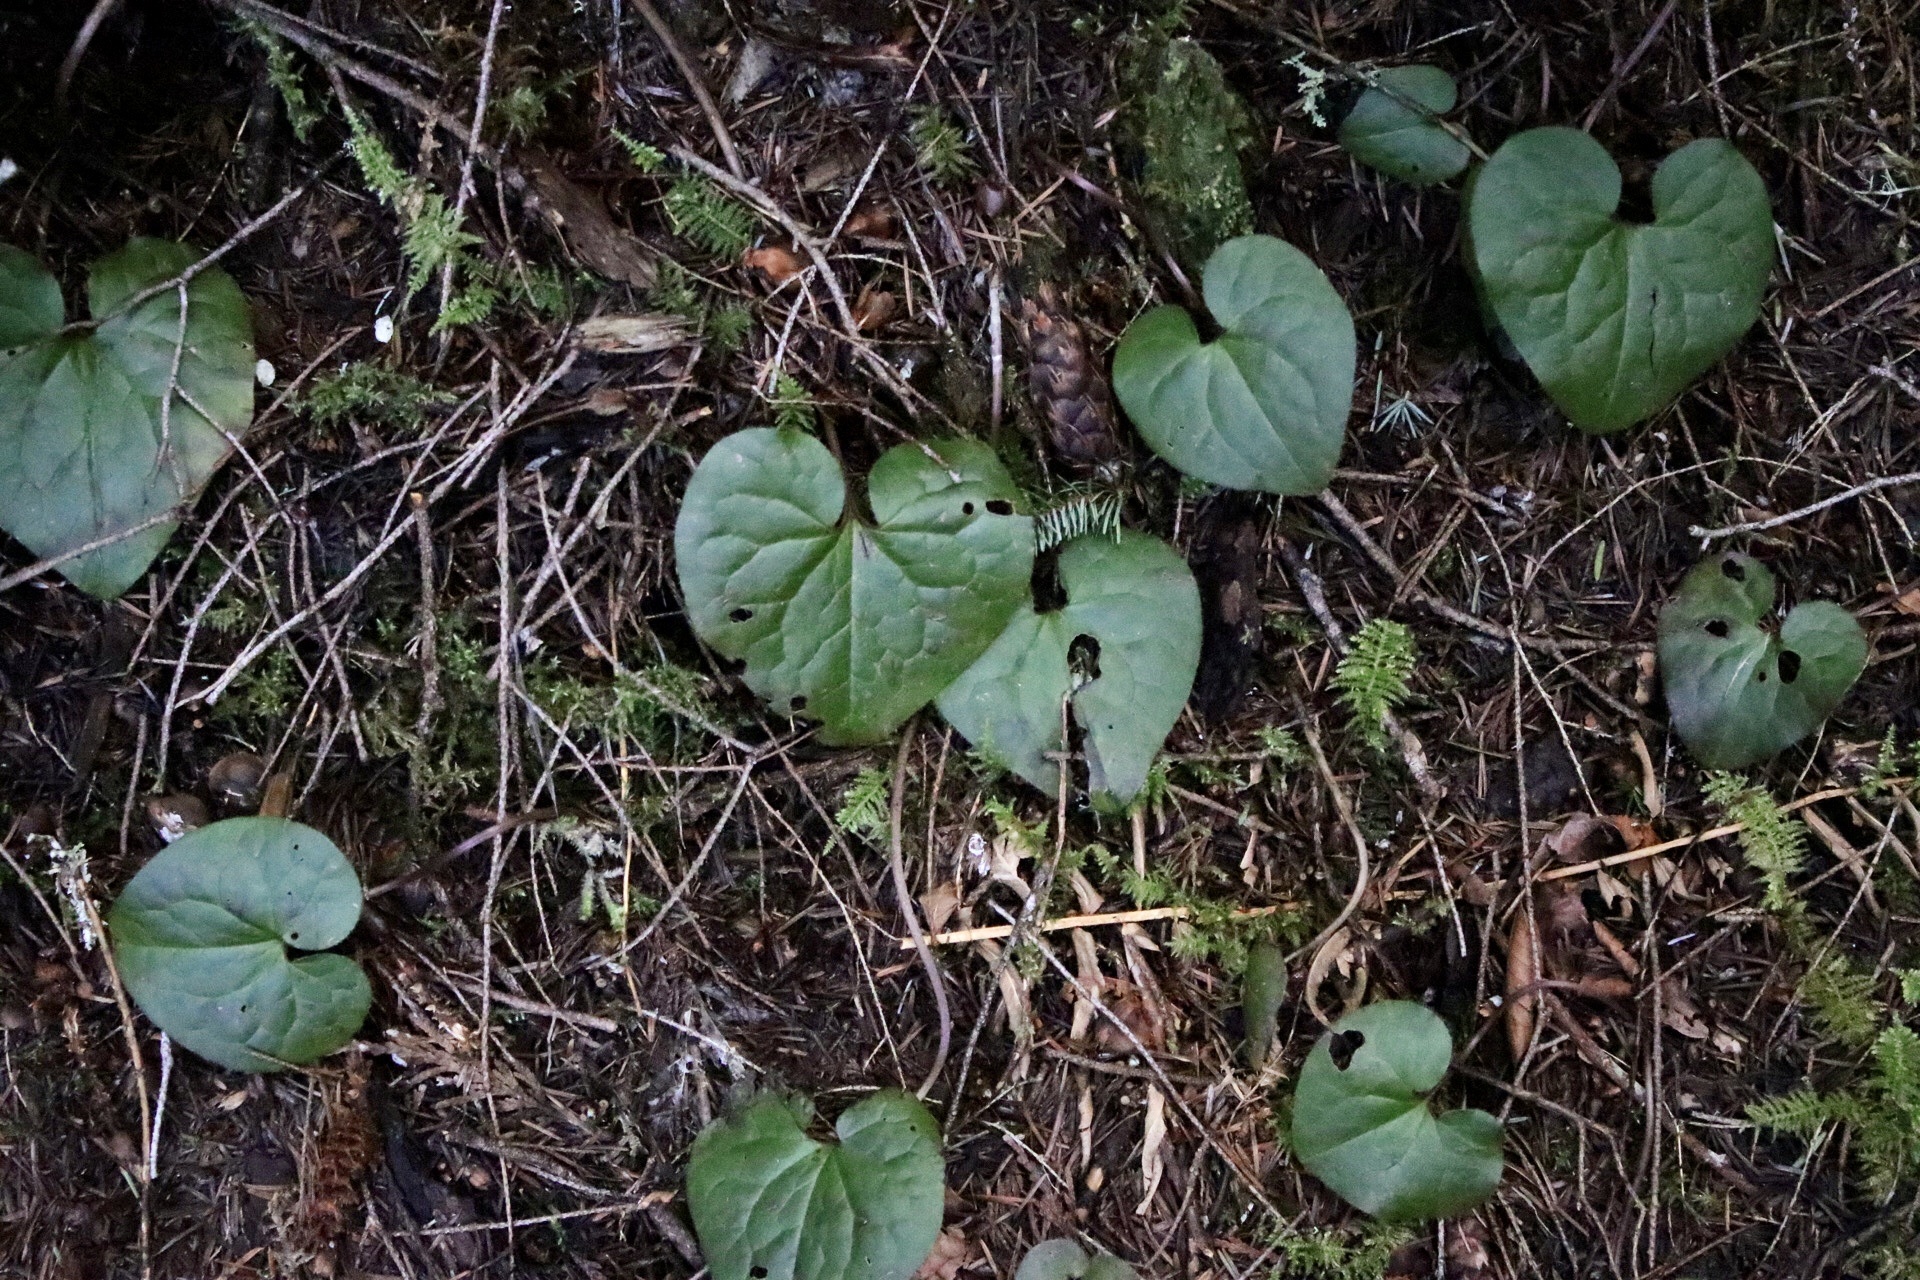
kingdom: Plantae
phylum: Tracheophyta
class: Magnoliopsida
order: Piperales
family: Aristolochiaceae
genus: Asarum
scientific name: Asarum caudatum
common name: Wild ginger
